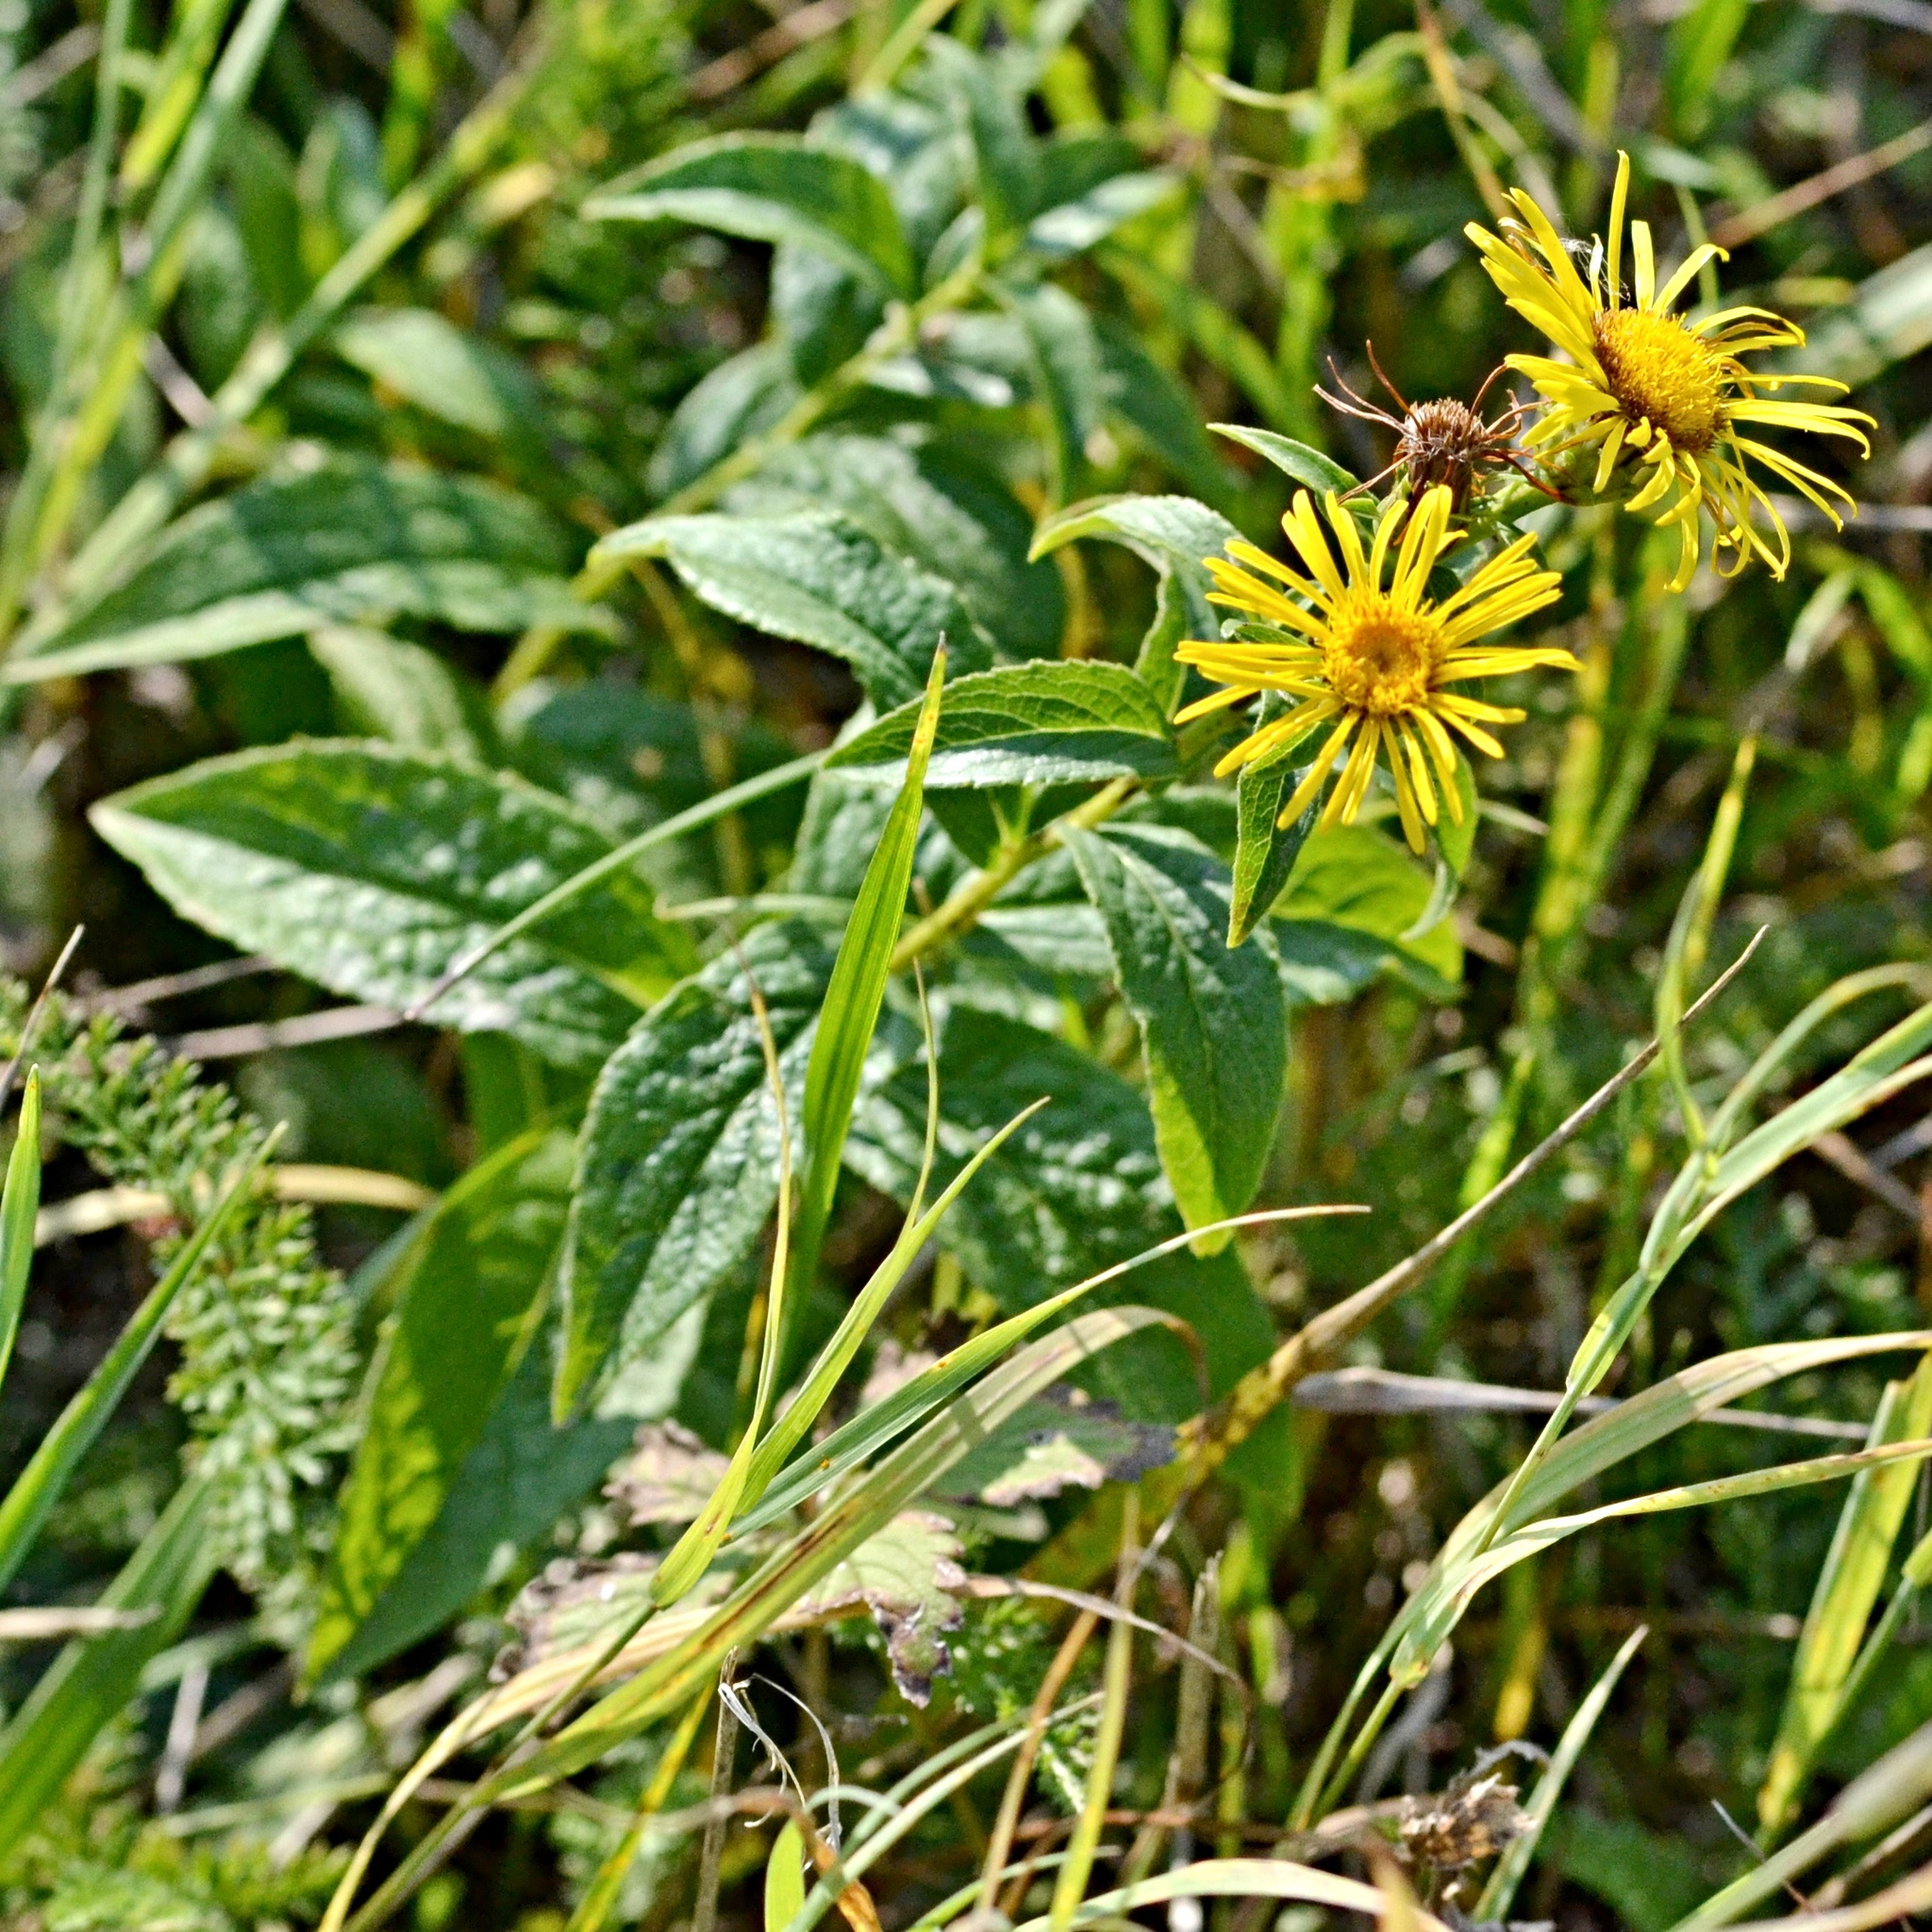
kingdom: Plantae
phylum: Tracheophyta
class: Magnoliopsida
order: Asterales
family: Asteraceae
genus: Pentanema
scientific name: Pentanema britannicum
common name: British elecampane
